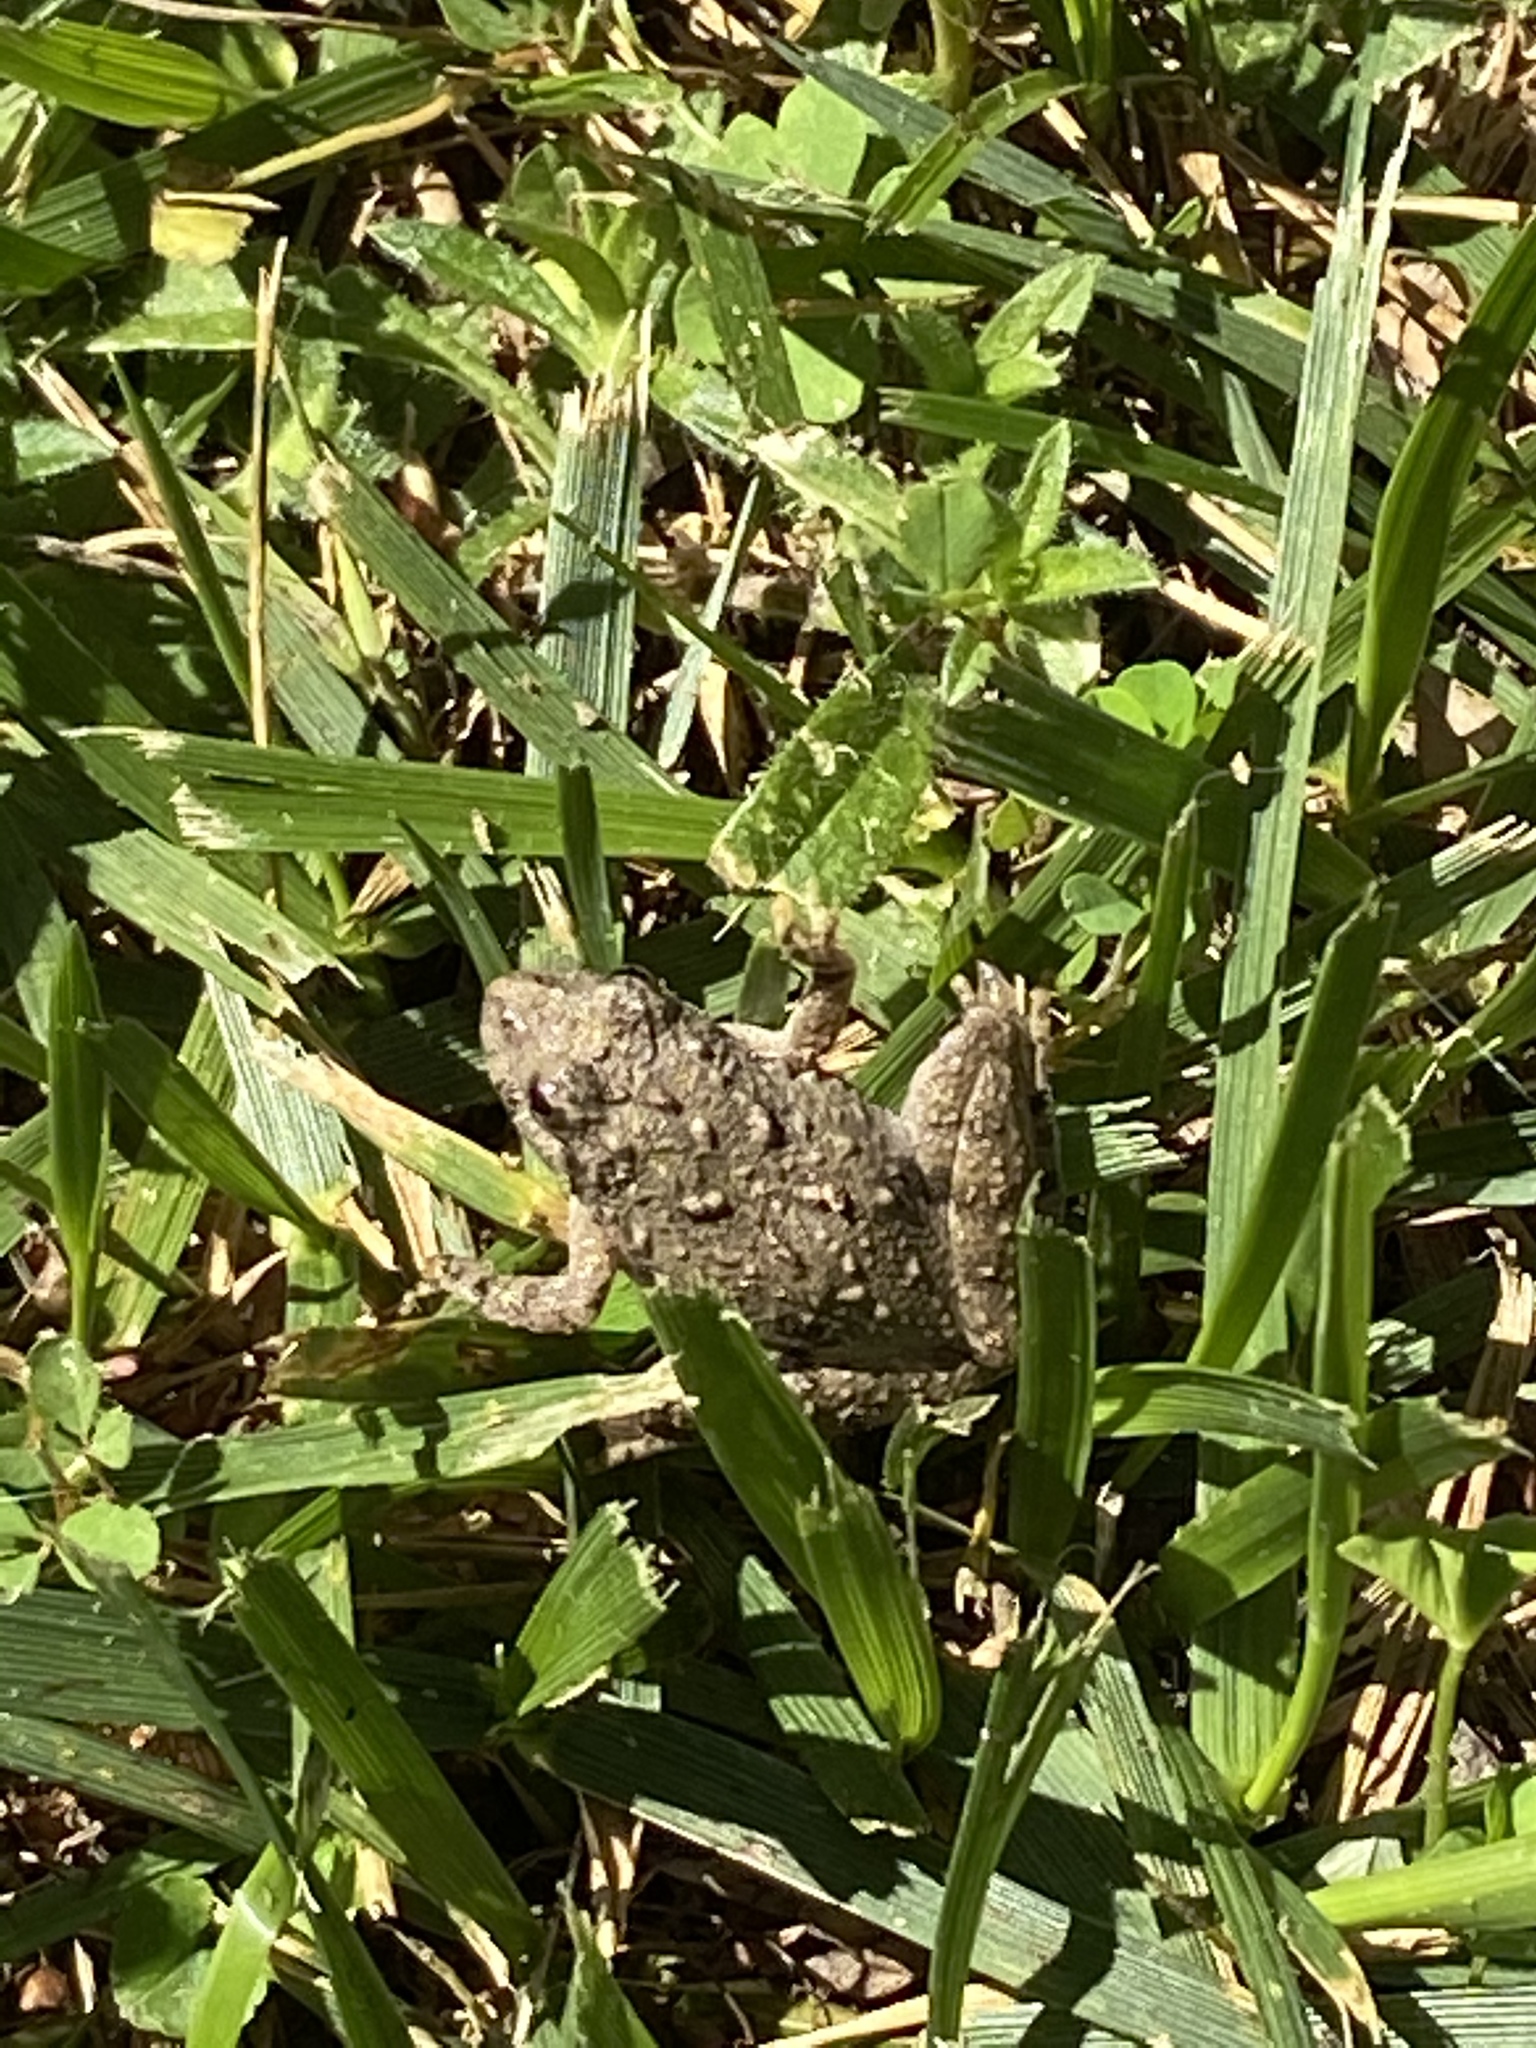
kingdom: Animalia
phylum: Chordata
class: Amphibia
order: Anura
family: Hylidae
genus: Acris
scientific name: Acris crepitans
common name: Northern cricket frog
